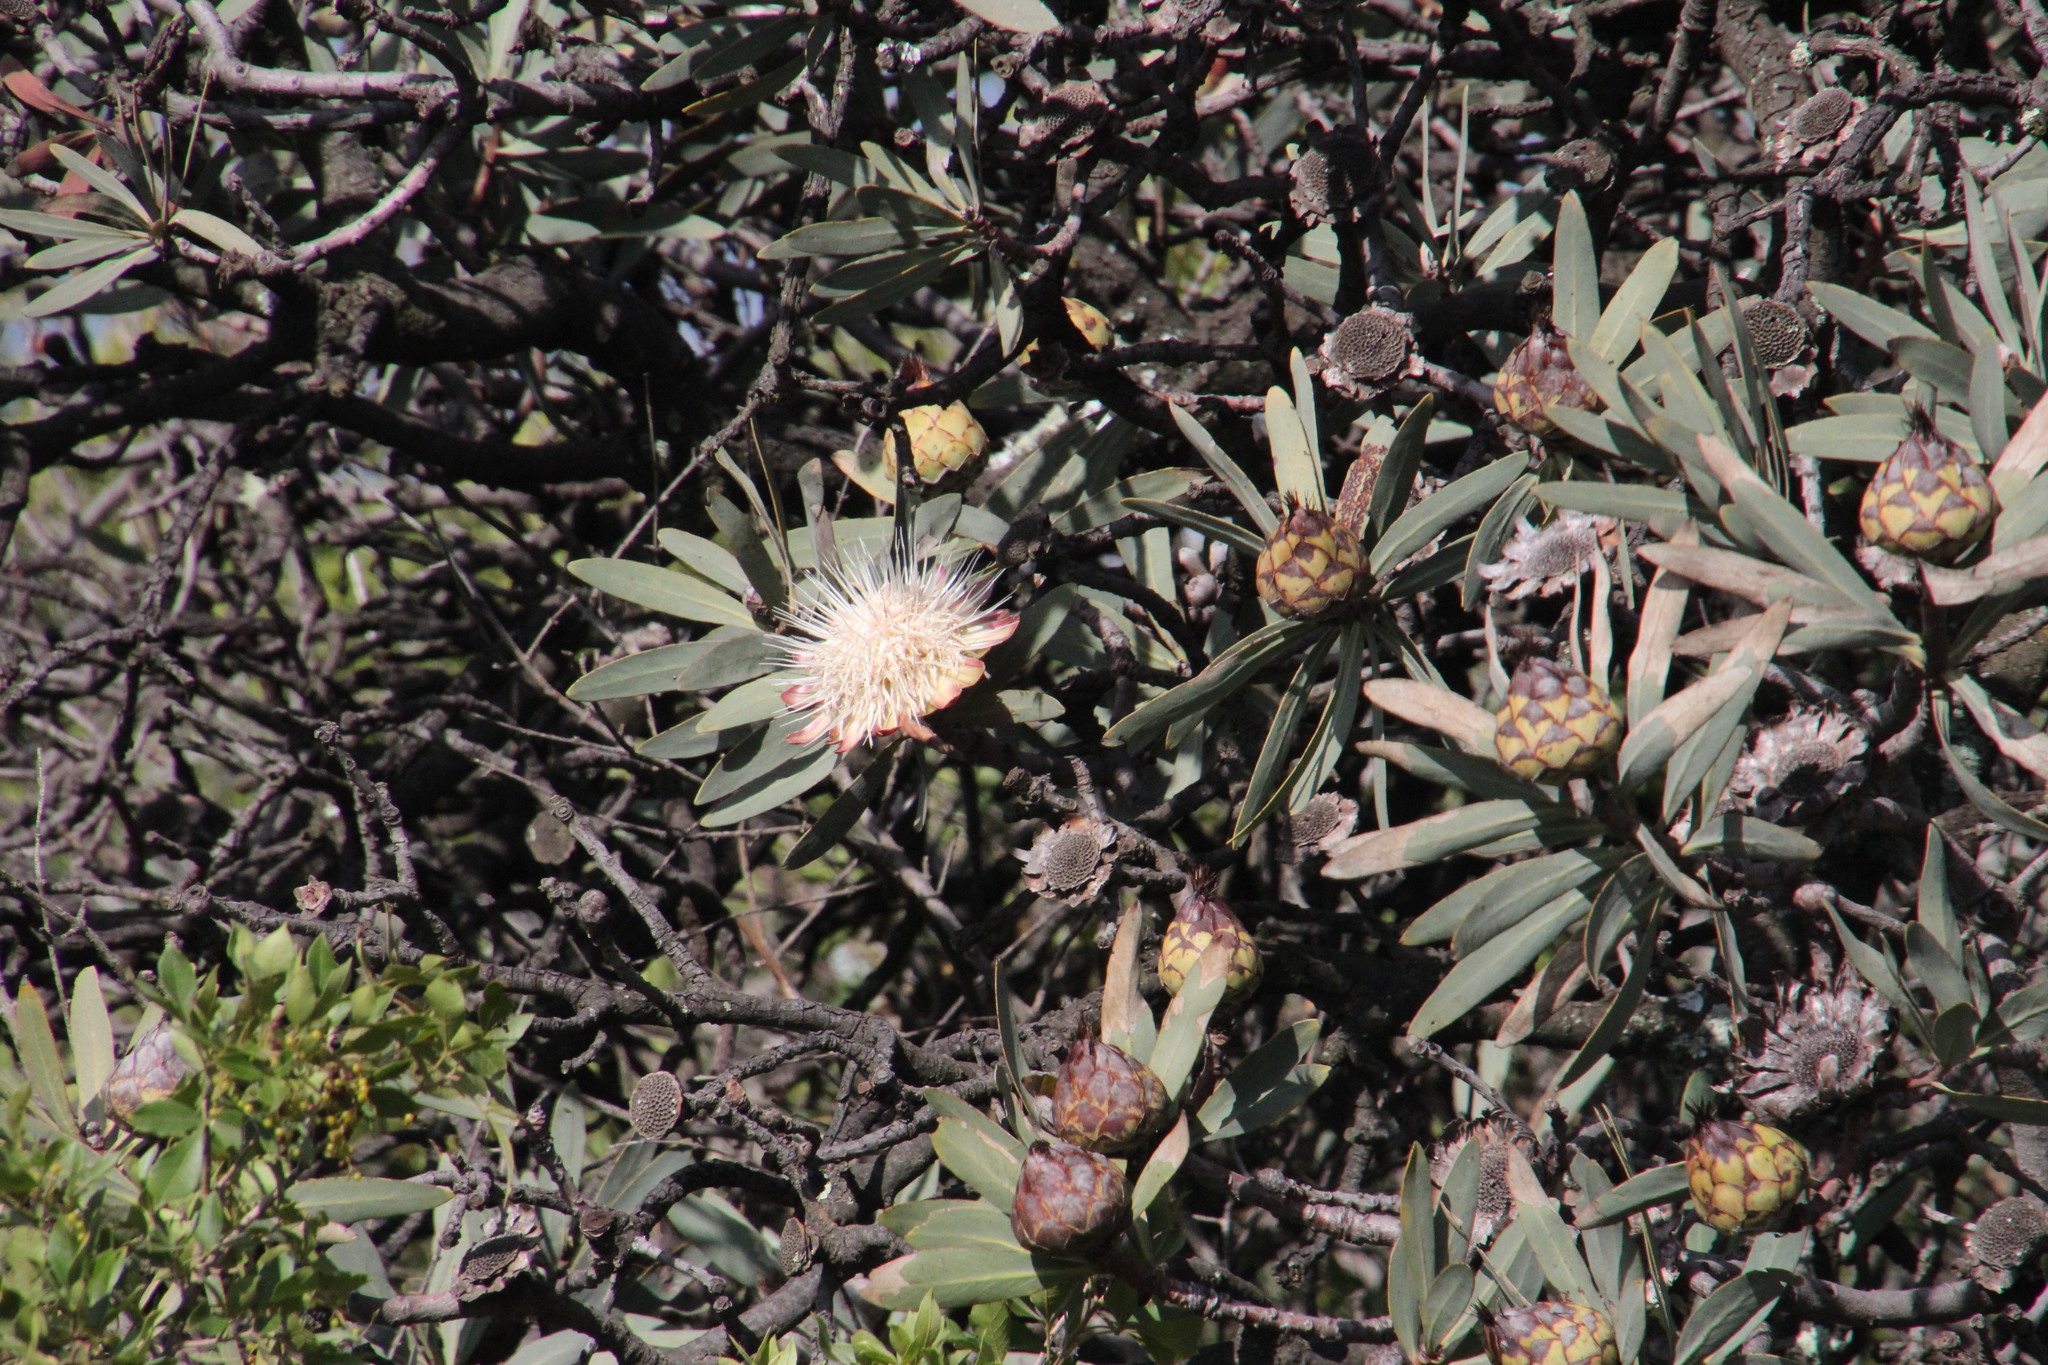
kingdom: Plantae
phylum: Tracheophyta
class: Magnoliopsida
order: Proteales
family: Proteaceae
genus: Protea
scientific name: Protea caffra
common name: Common sugarbush
